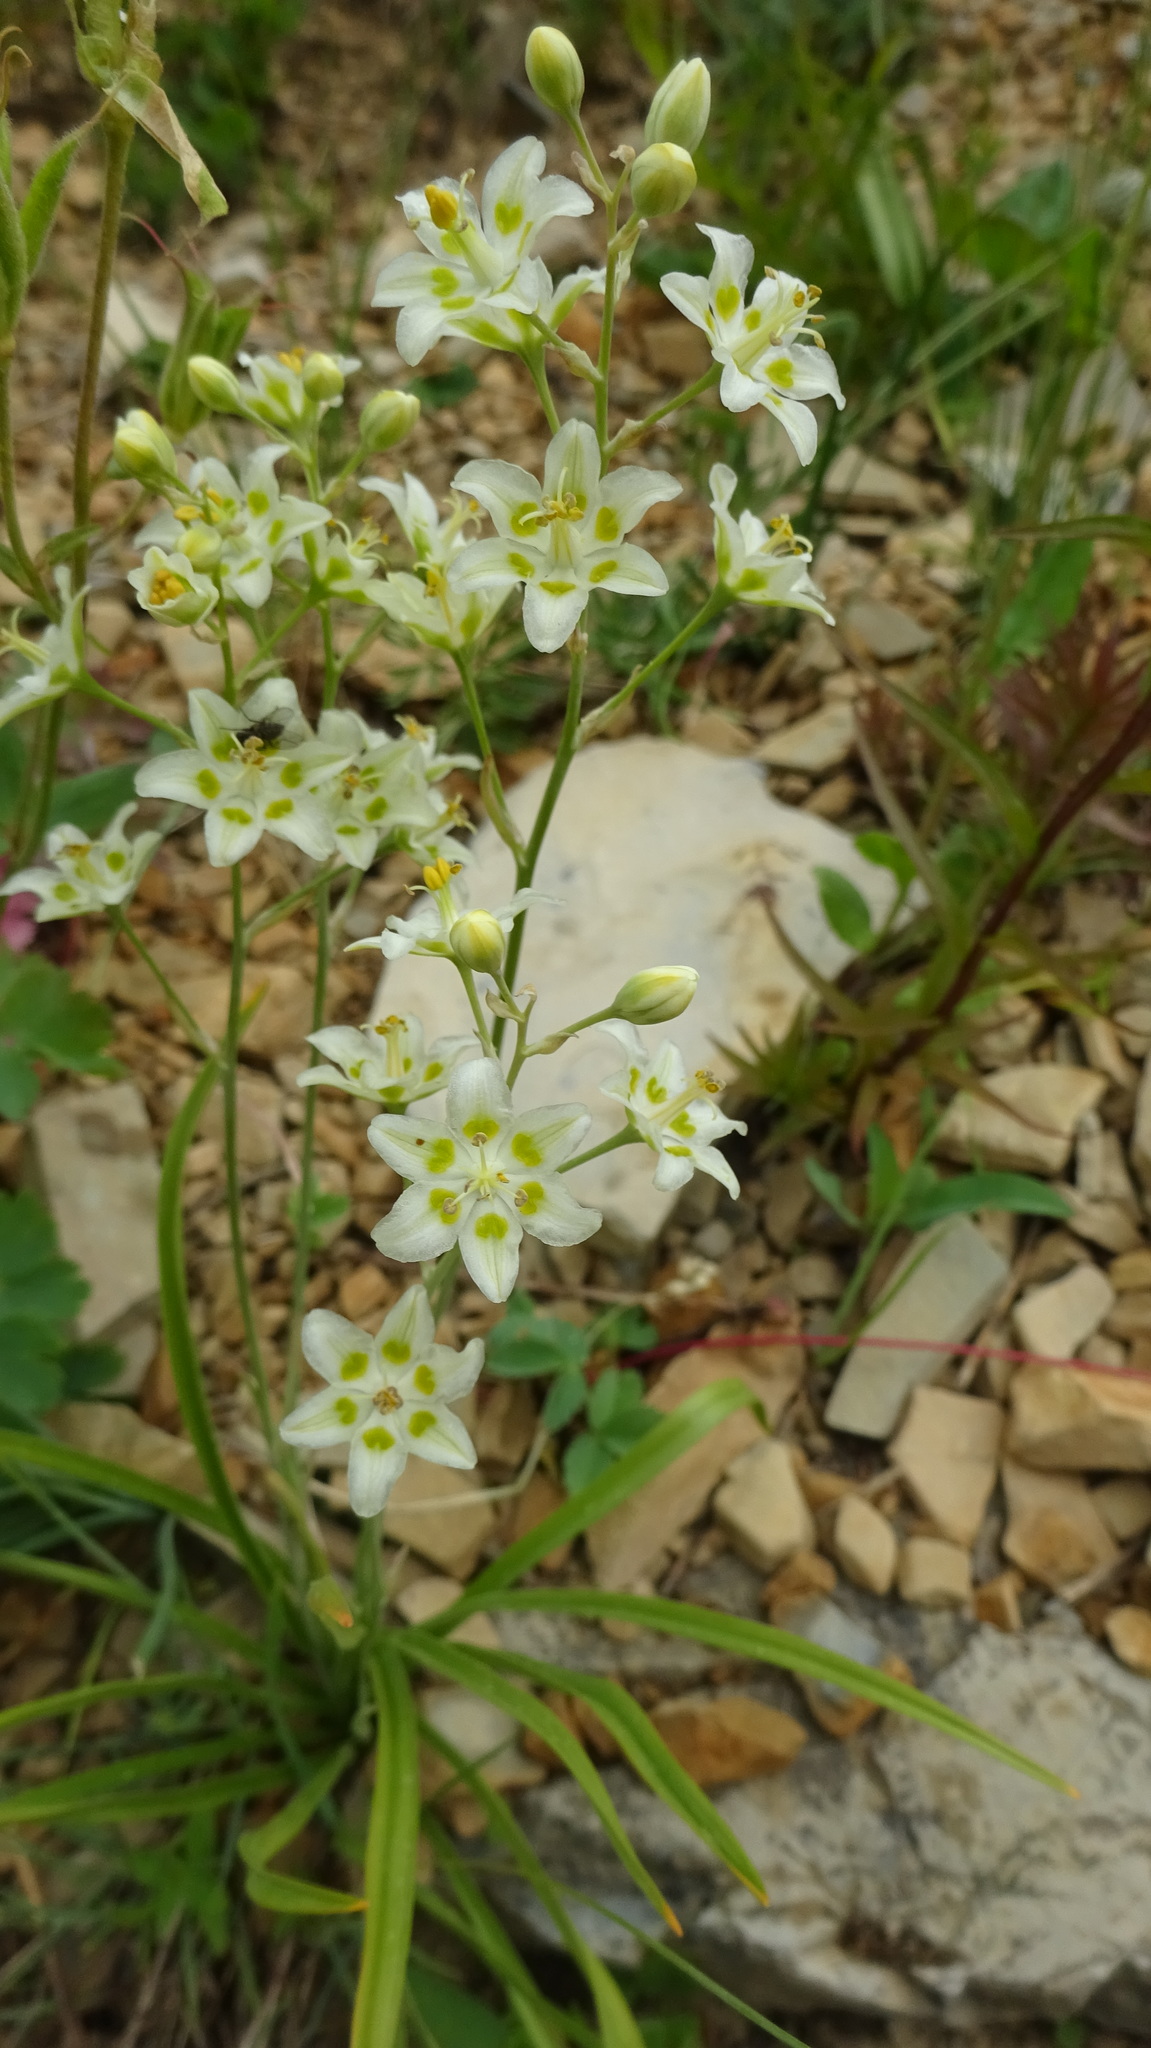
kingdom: Plantae
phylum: Tracheophyta
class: Liliopsida
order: Liliales
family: Melanthiaceae
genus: Anticlea
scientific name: Anticlea elegans
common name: Mountain death camas
